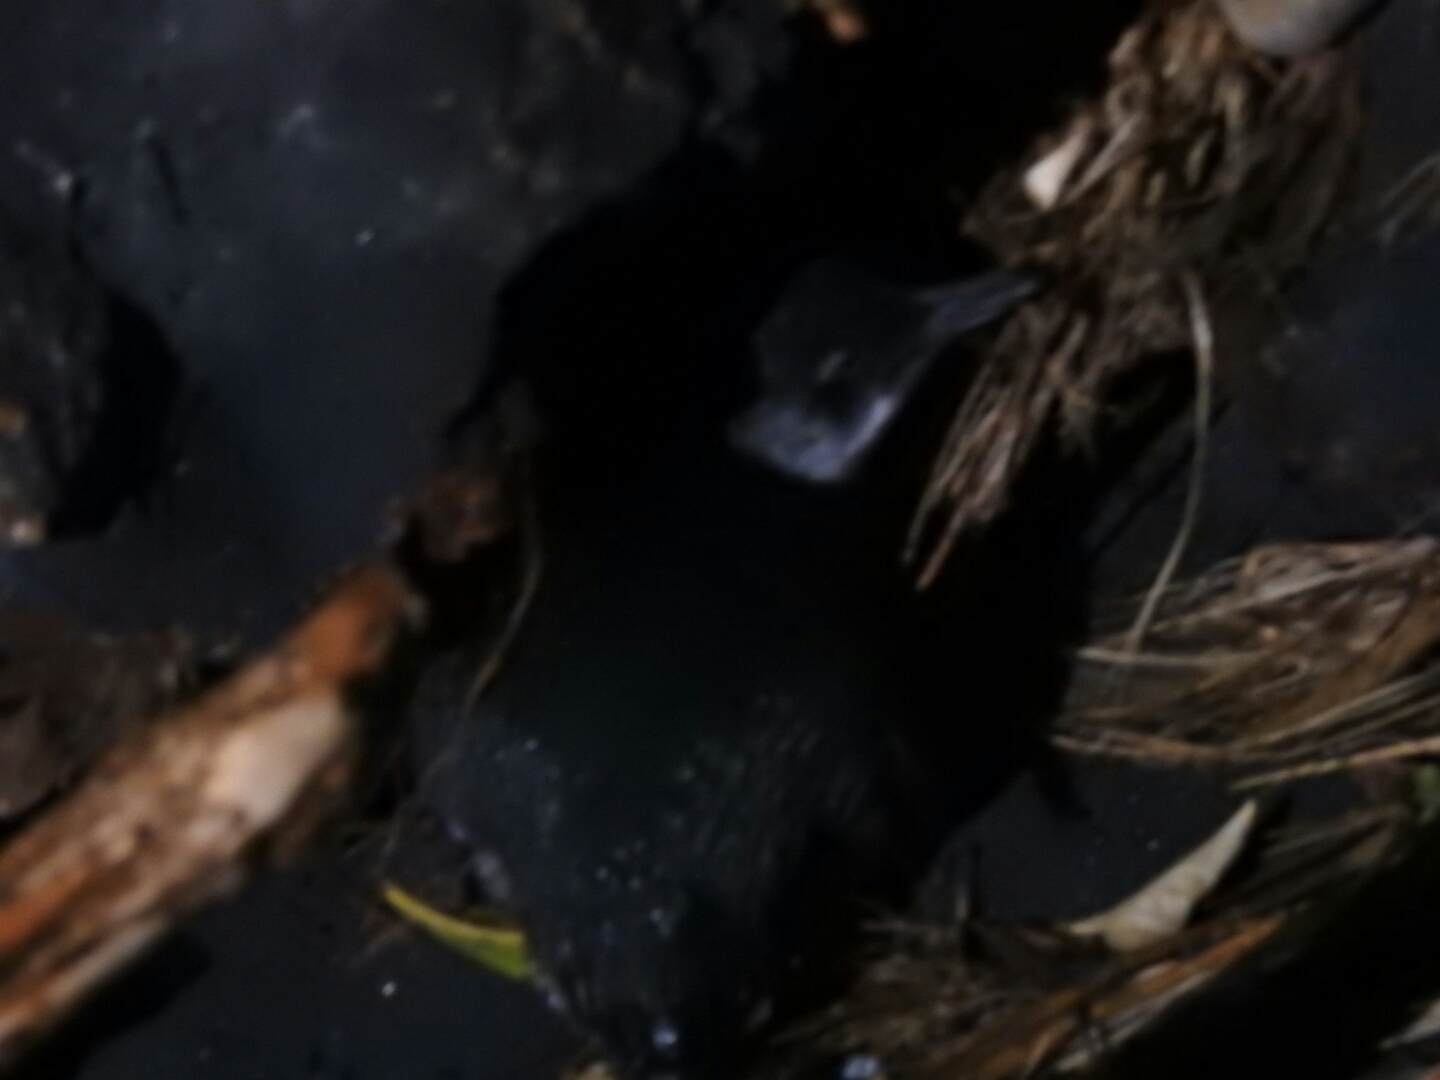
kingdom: Animalia
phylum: Chordata
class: Aves
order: Sphenisciformes
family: Spheniscidae
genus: Eudyptula
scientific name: Eudyptula minor
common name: Little penguin
